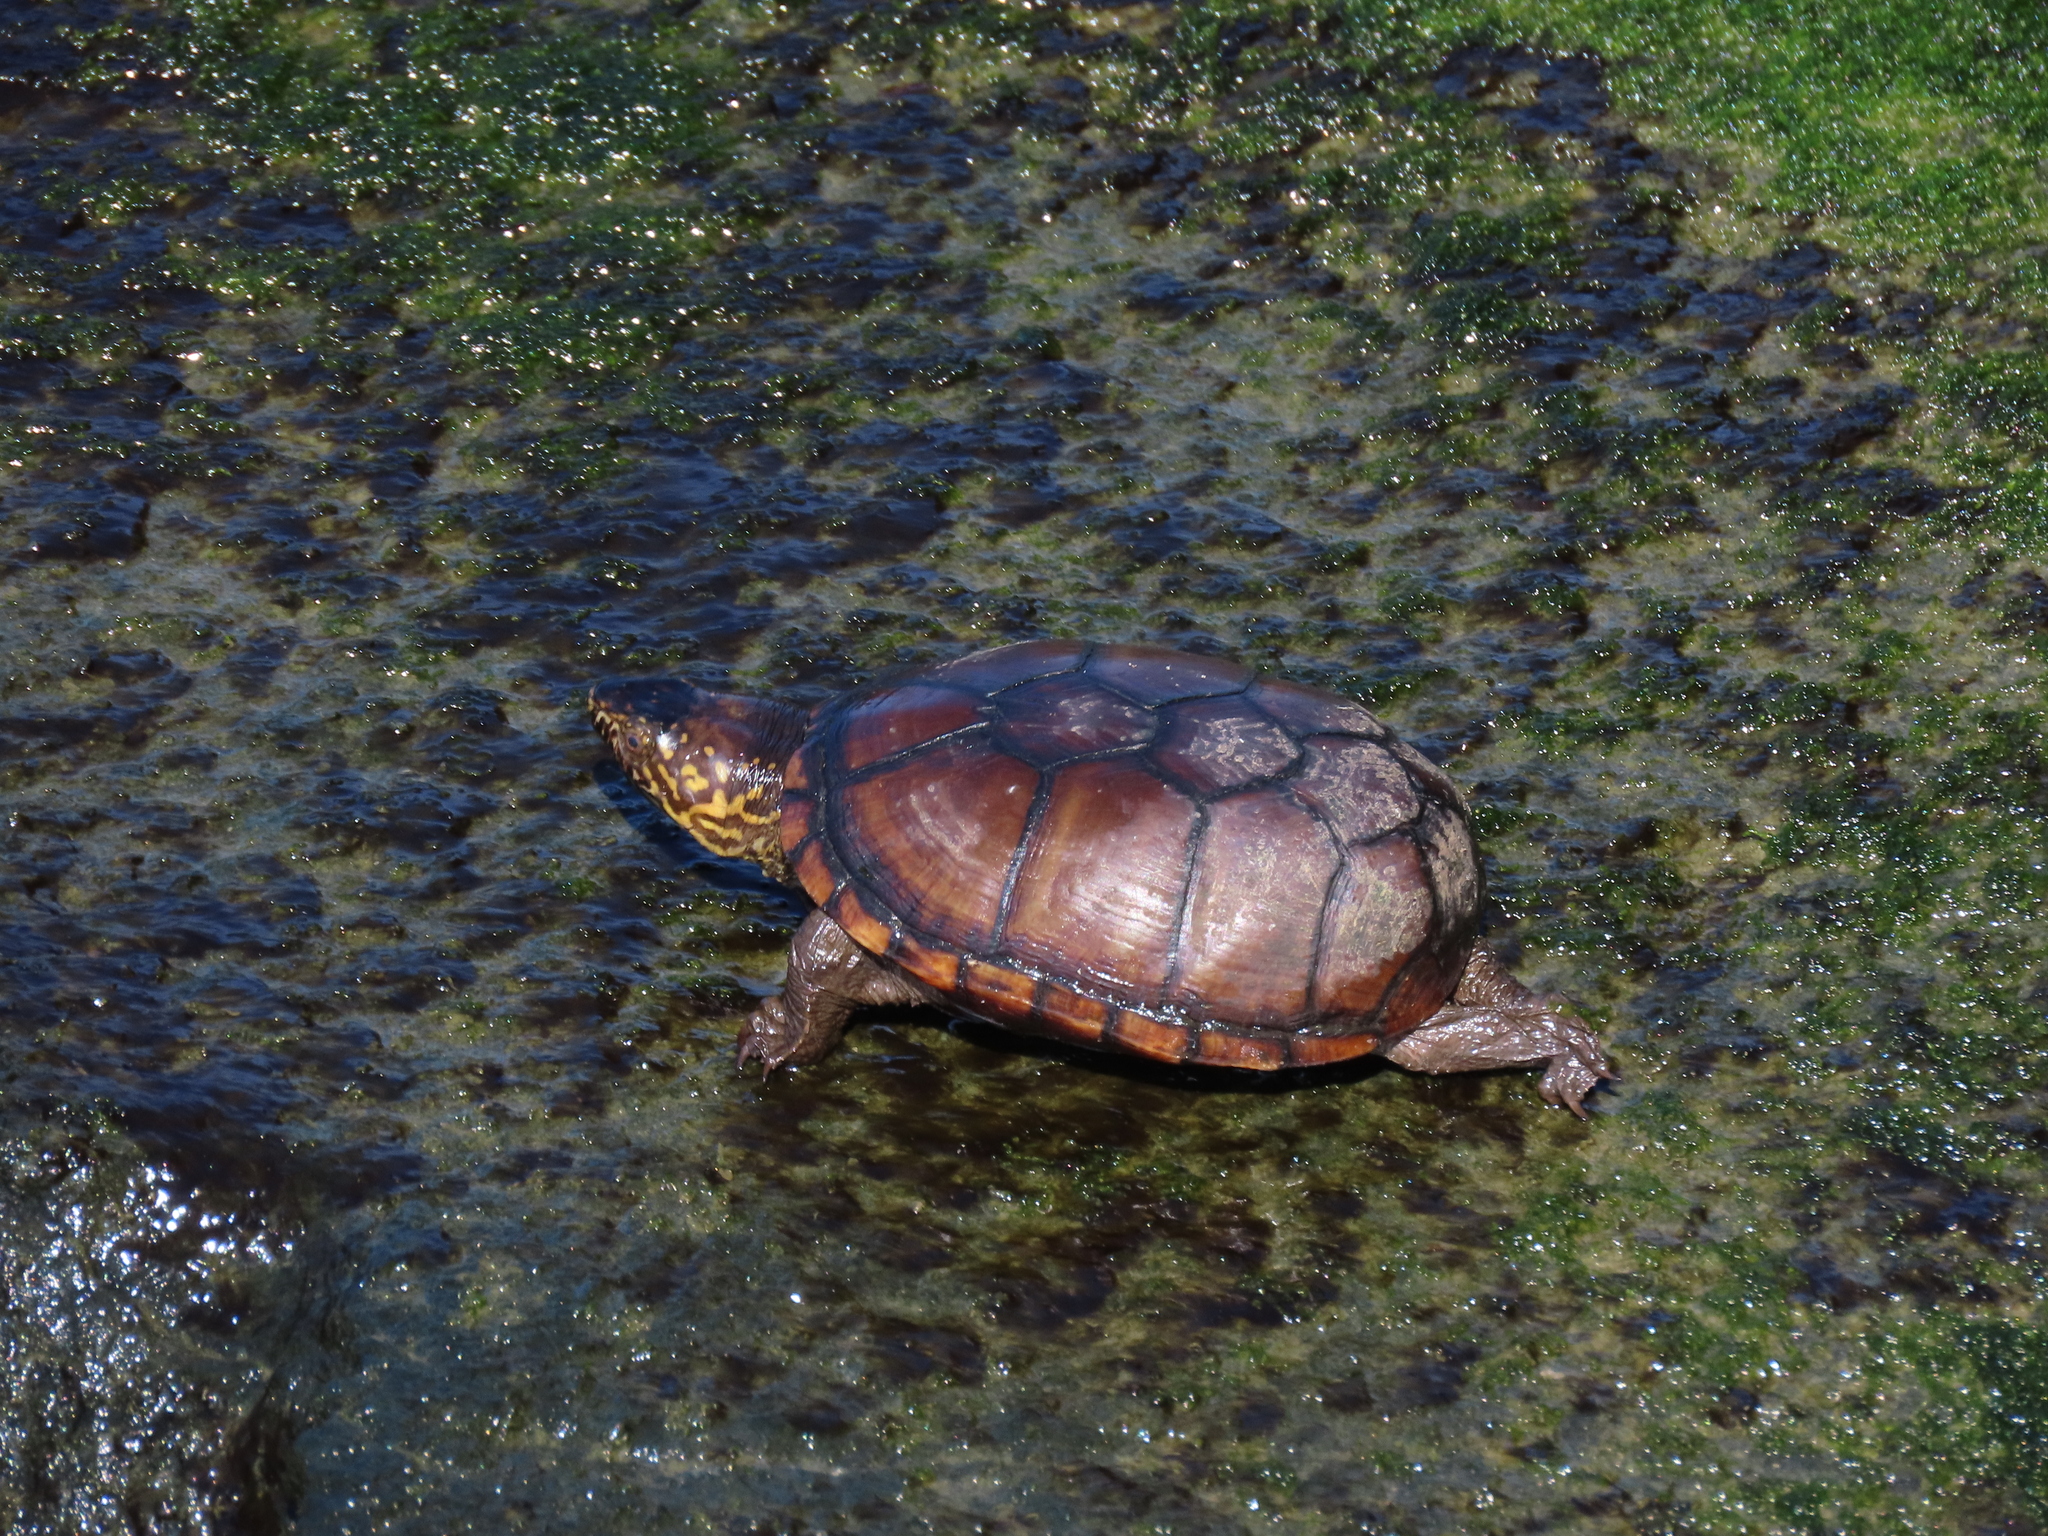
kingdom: Animalia
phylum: Chordata
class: Testudines
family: Kinosternidae
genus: Kinosternon
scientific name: Kinosternon subrubrum
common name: Eastern mud turtle
